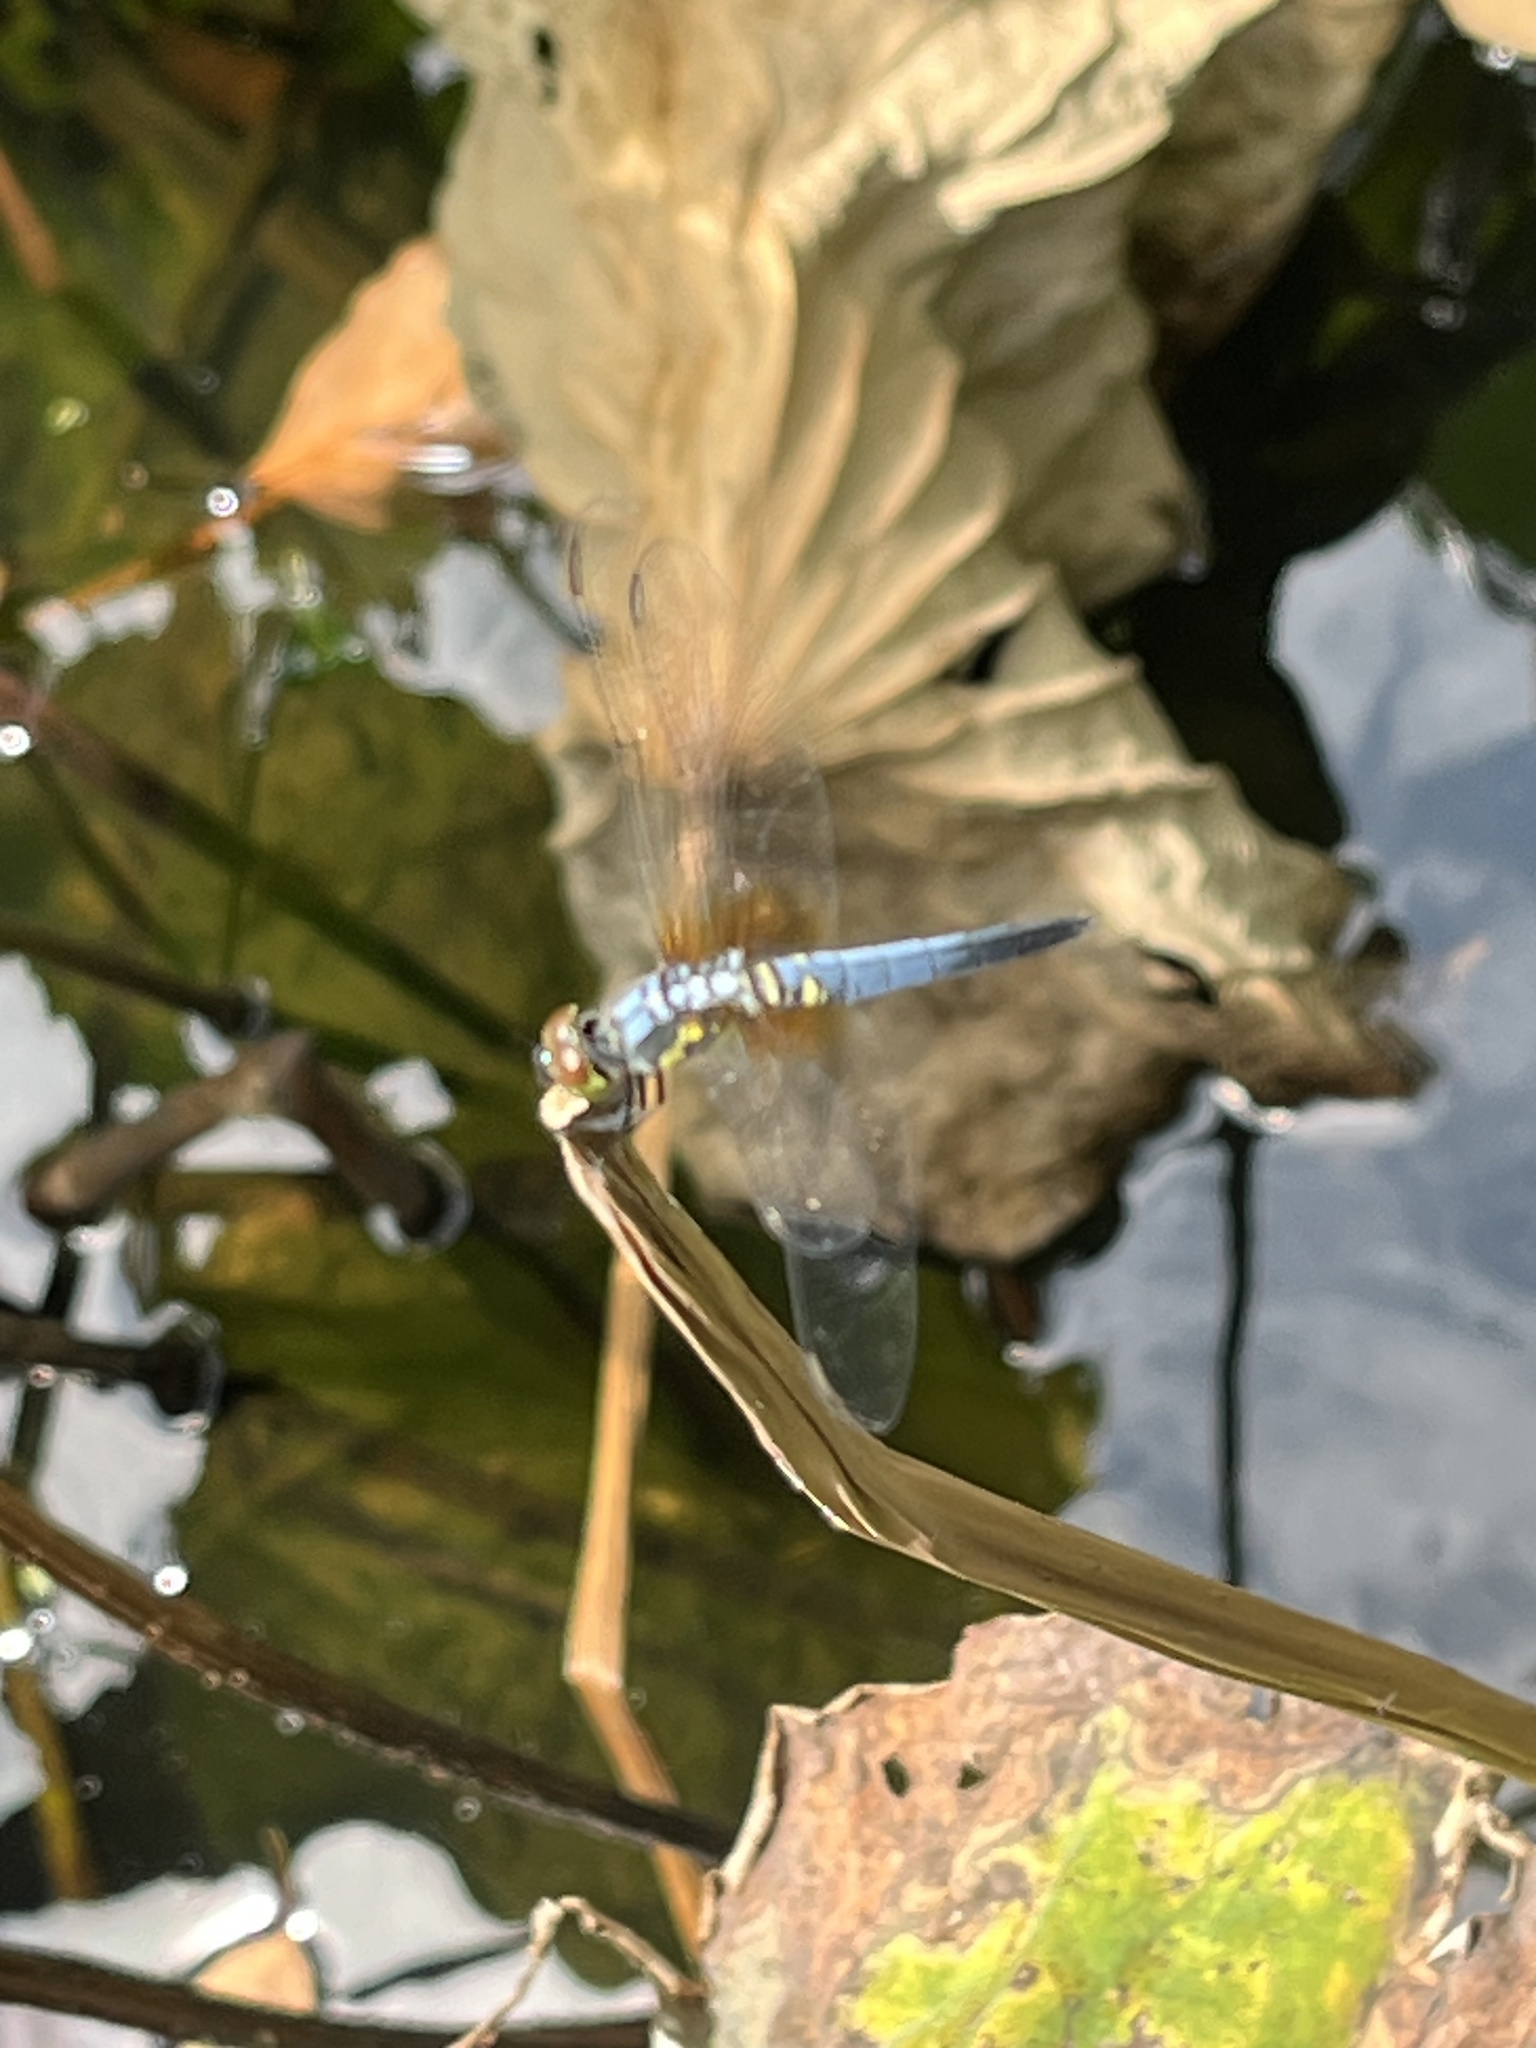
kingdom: Animalia
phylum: Arthropoda
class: Insecta
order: Odonata
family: Libellulidae
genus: Brachydiplax
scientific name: Brachydiplax chalybea
